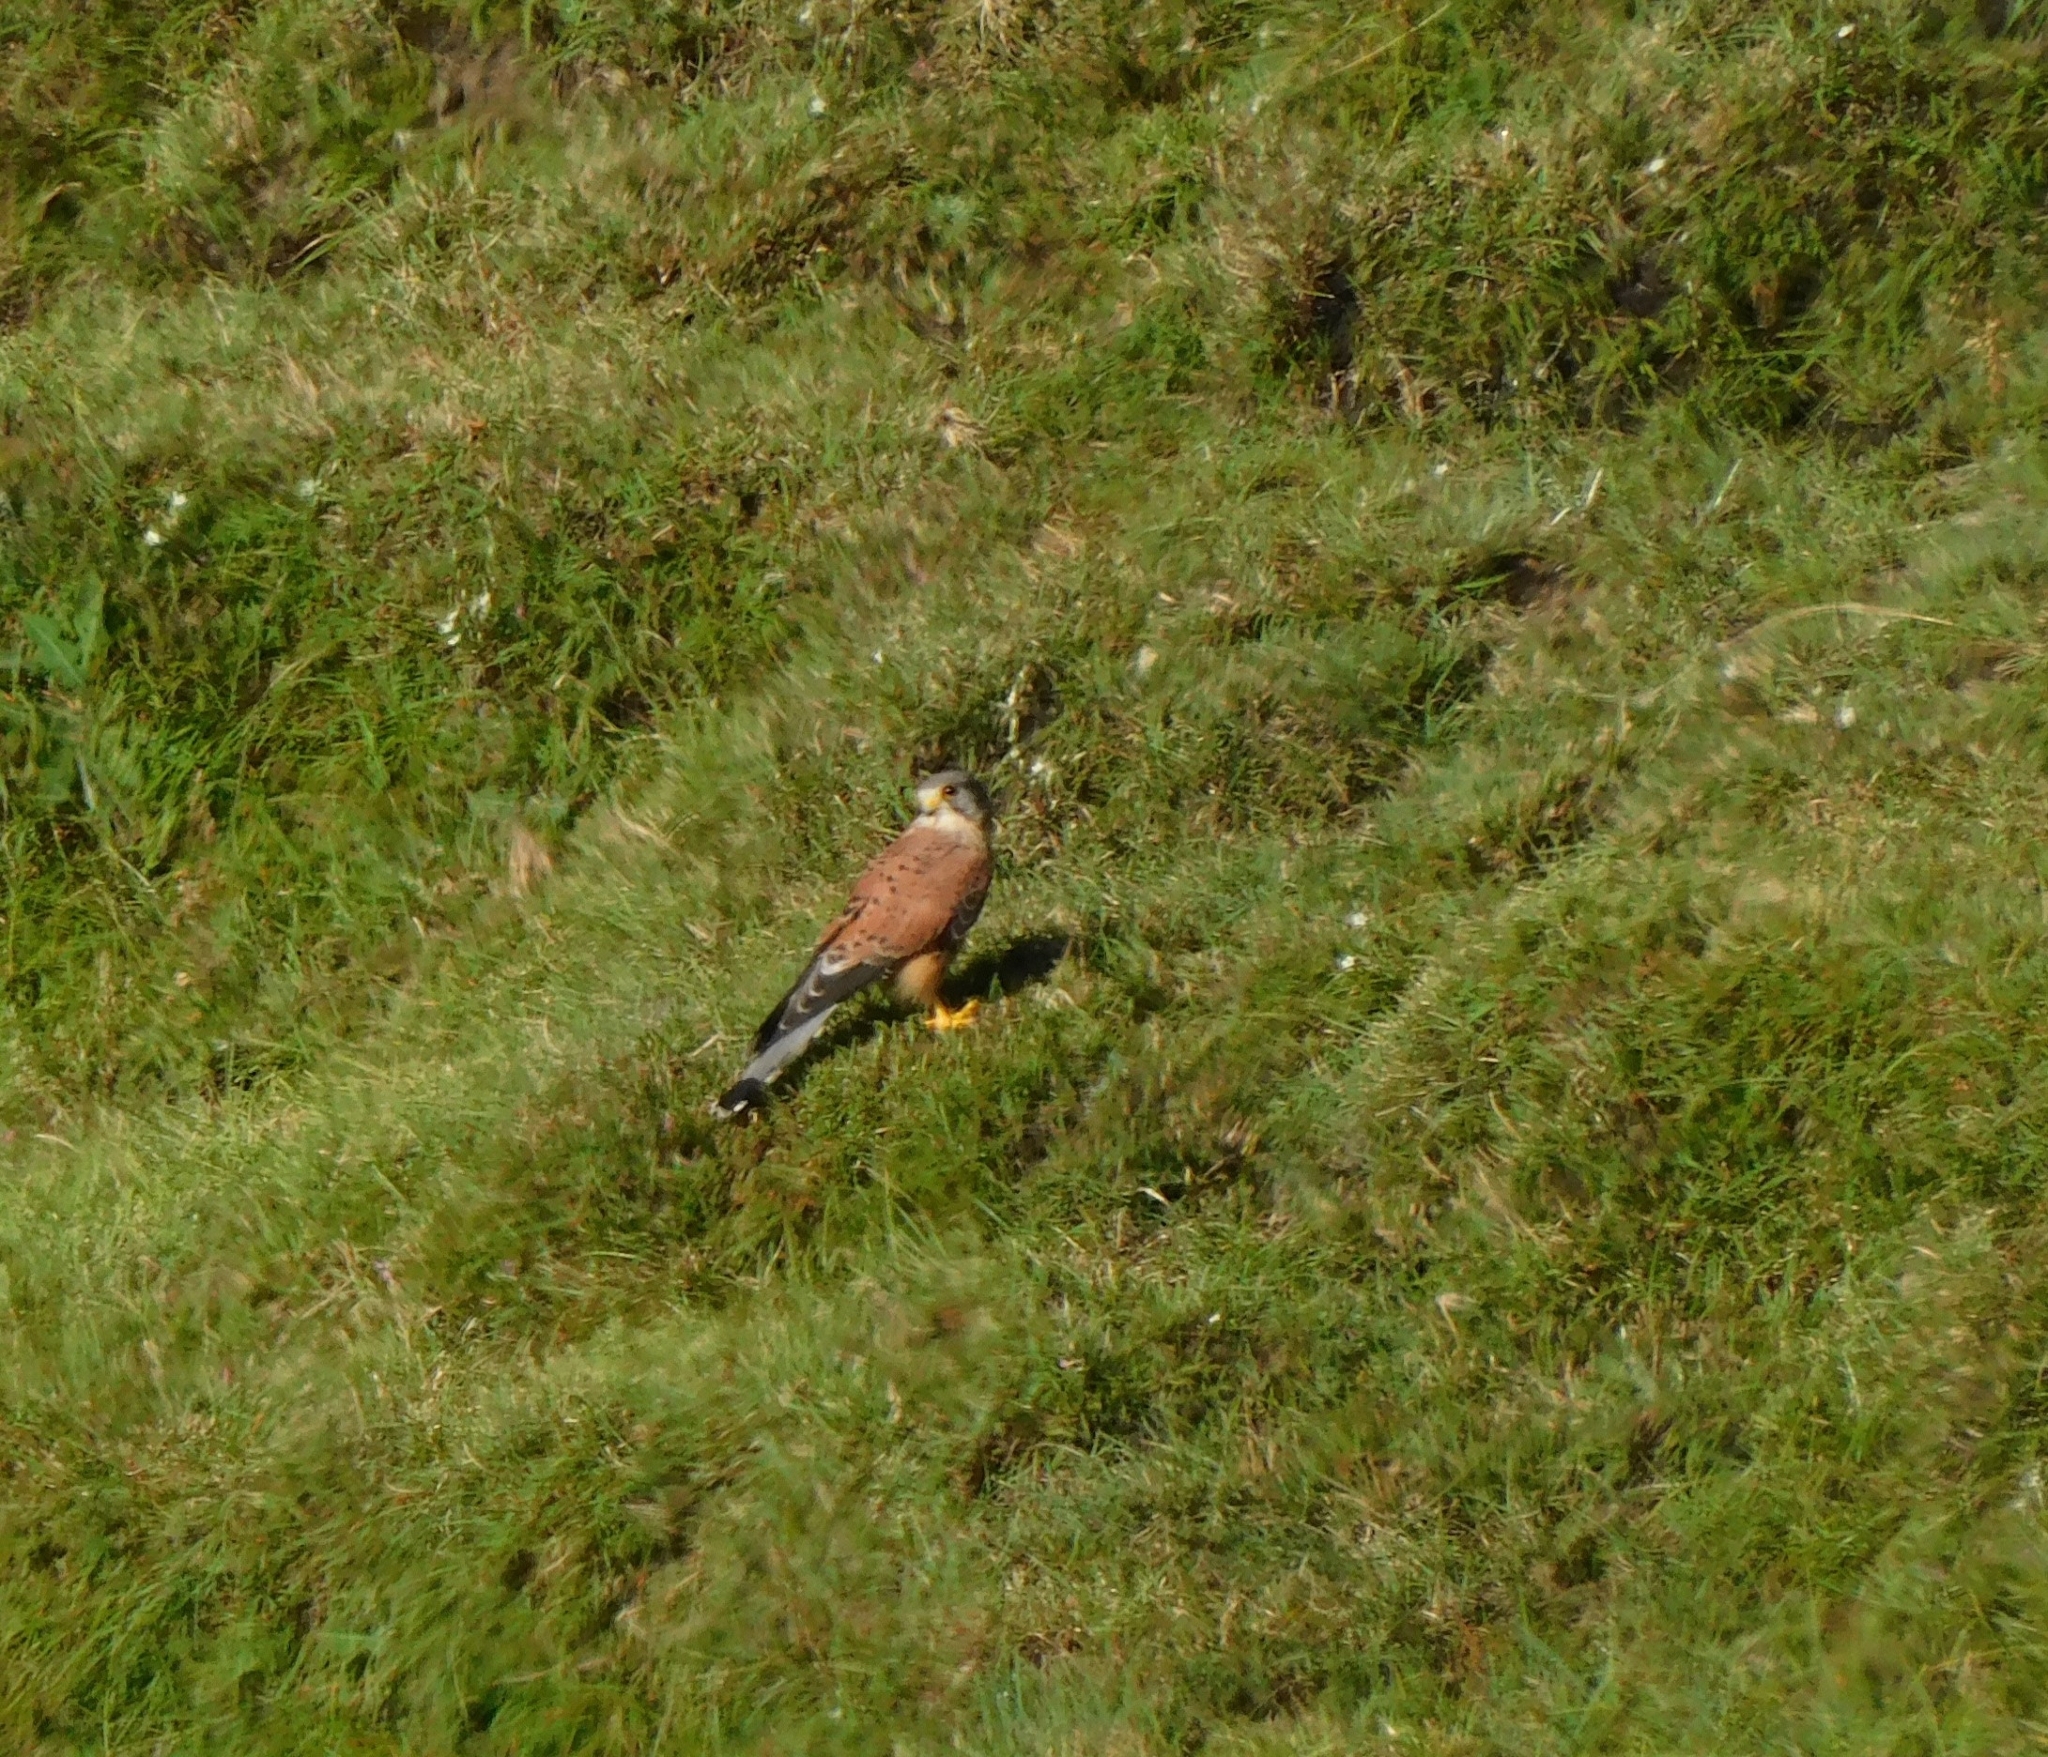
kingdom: Animalia
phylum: Chordata
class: Aves
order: Falconiformes
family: Falconidae
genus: Falco
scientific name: Falco tinnunculus
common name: Common kestrel
